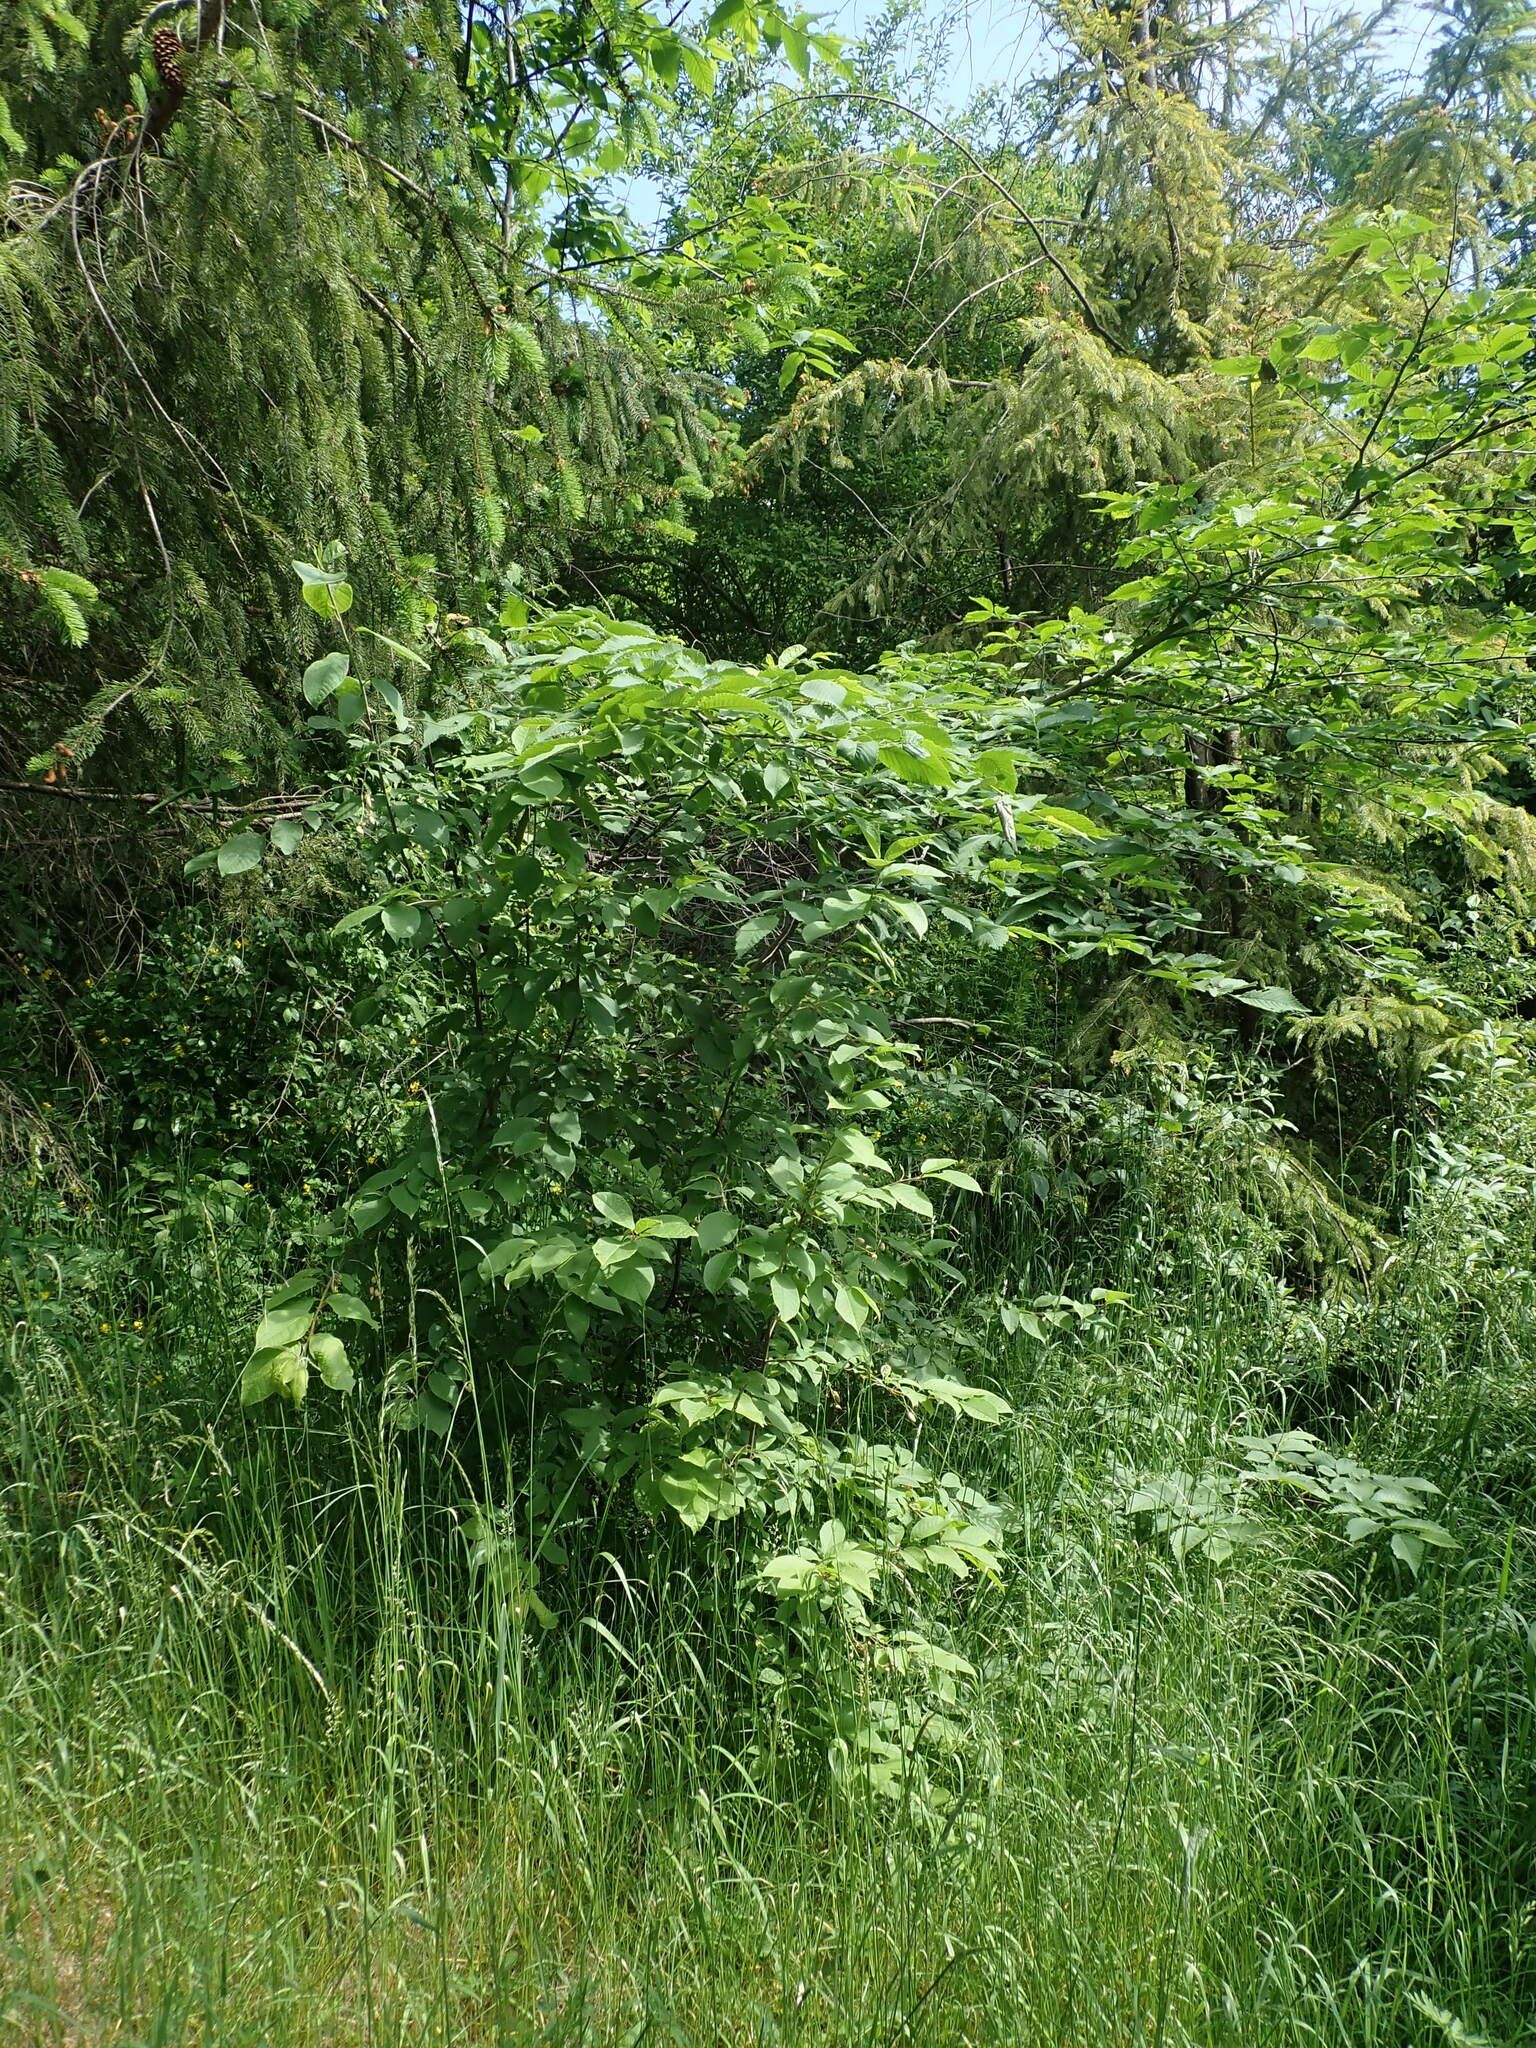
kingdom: Plantae
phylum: Tracheophyta
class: Magnoliopsida
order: Rosales
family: Rosaceae
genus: Prunus
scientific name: Prunus padus
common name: Bird cherry
